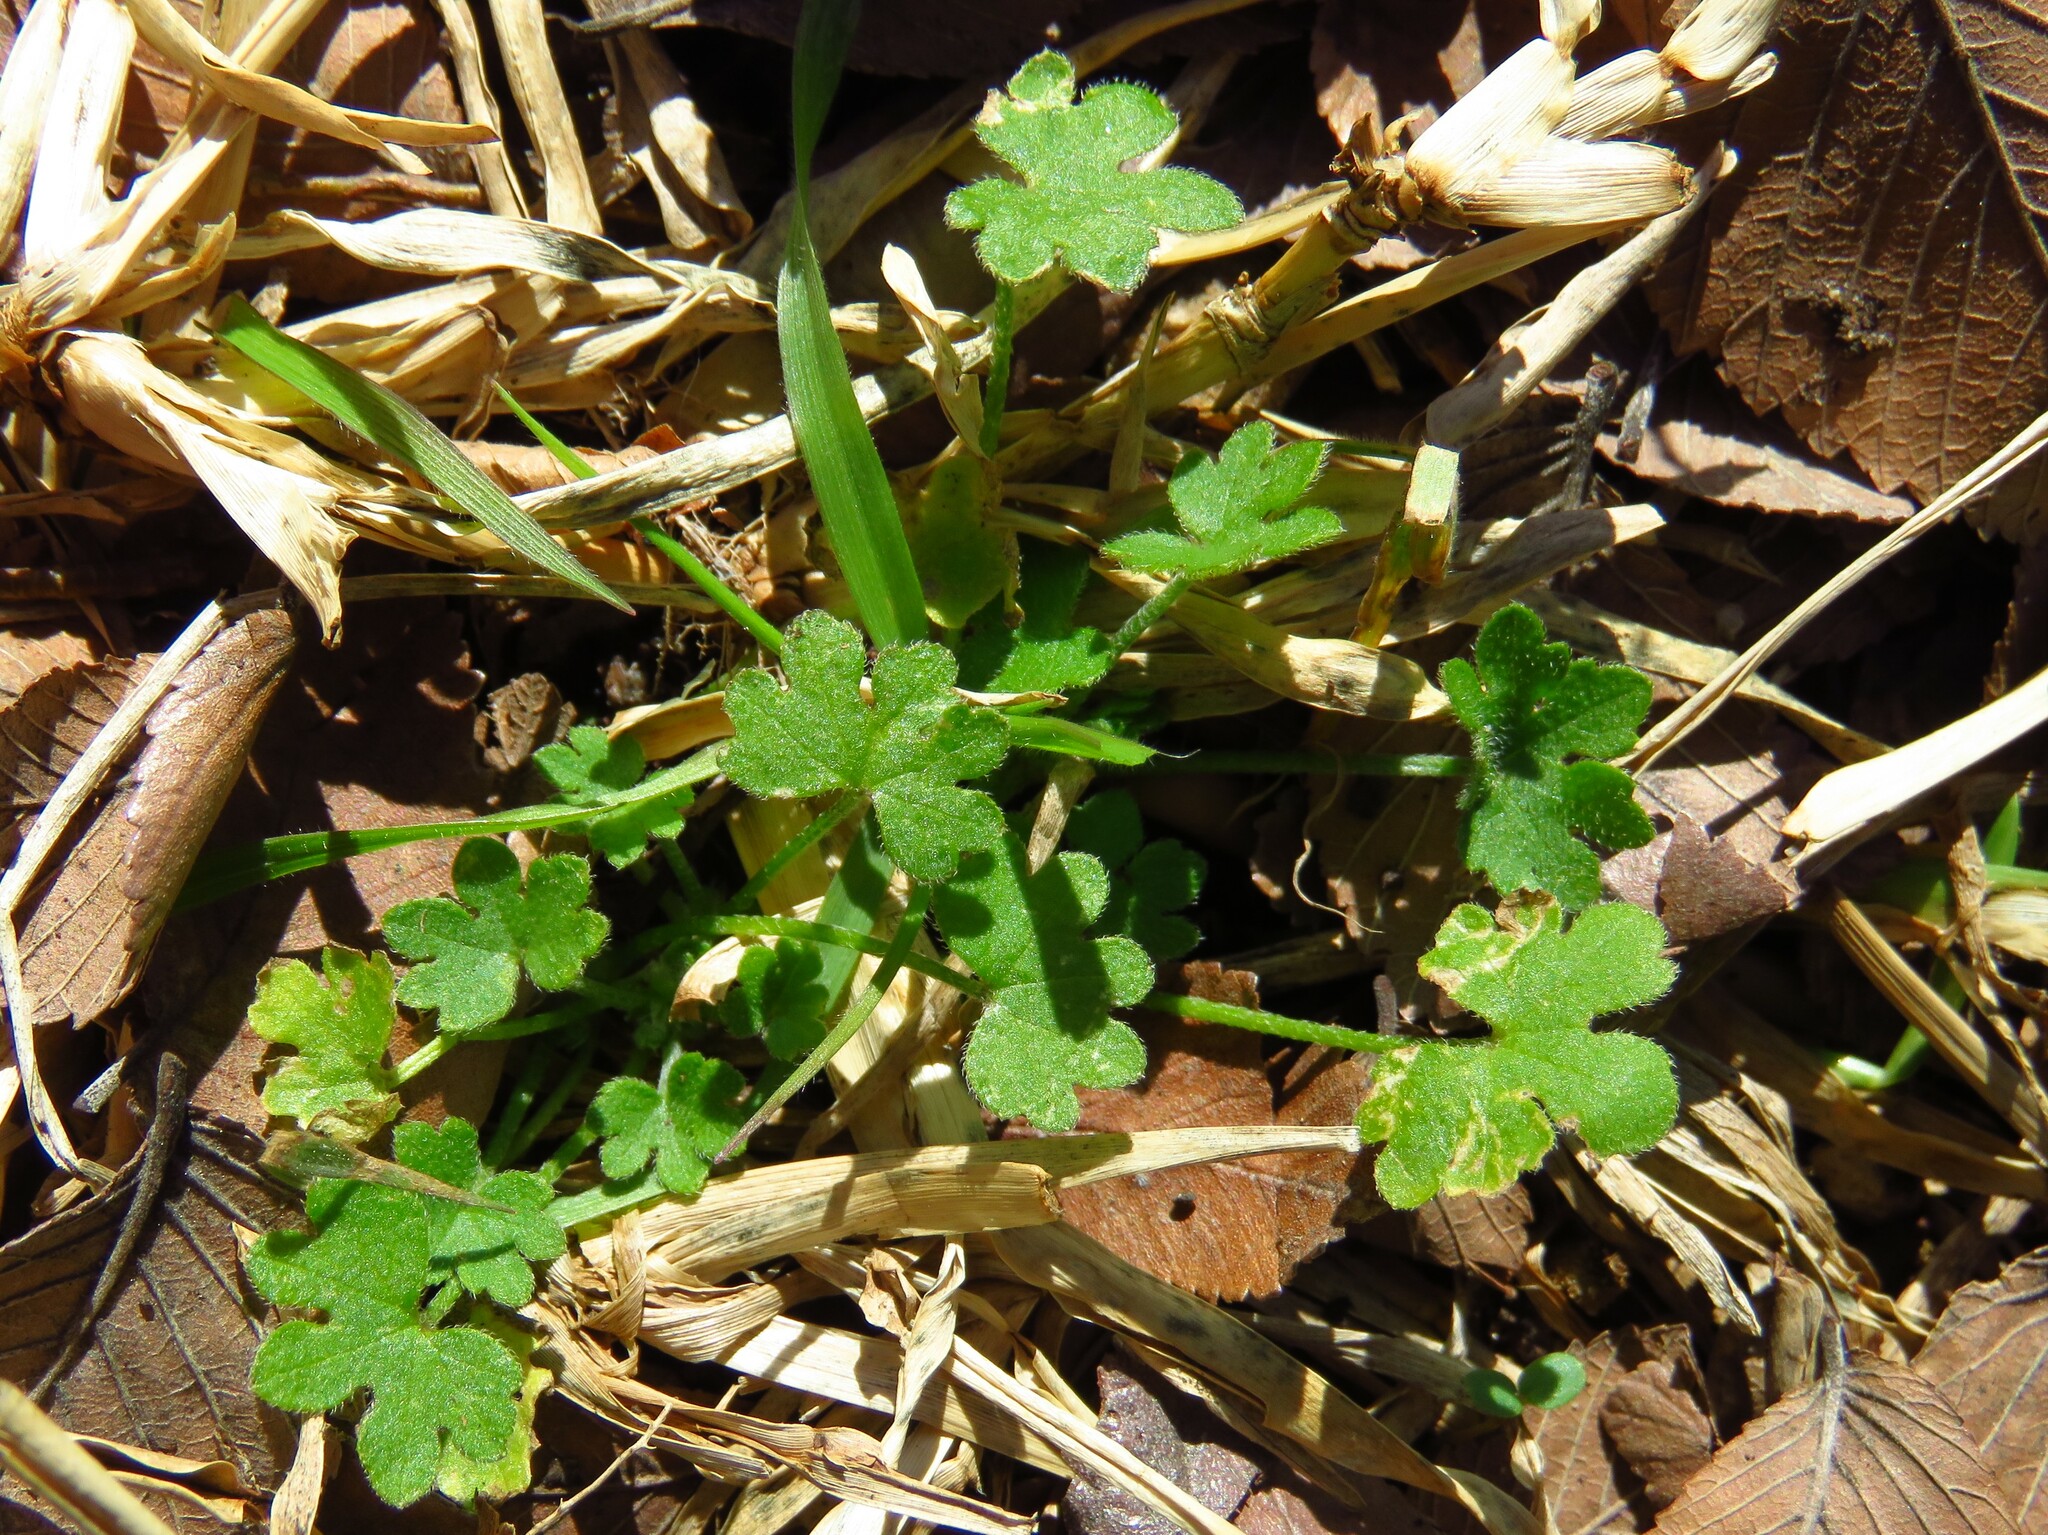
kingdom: Plantae
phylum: Tracheophyta
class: Magnoliopsida
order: Apiales
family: Apiaceae
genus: Bowlesia
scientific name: Bowlesia incana
